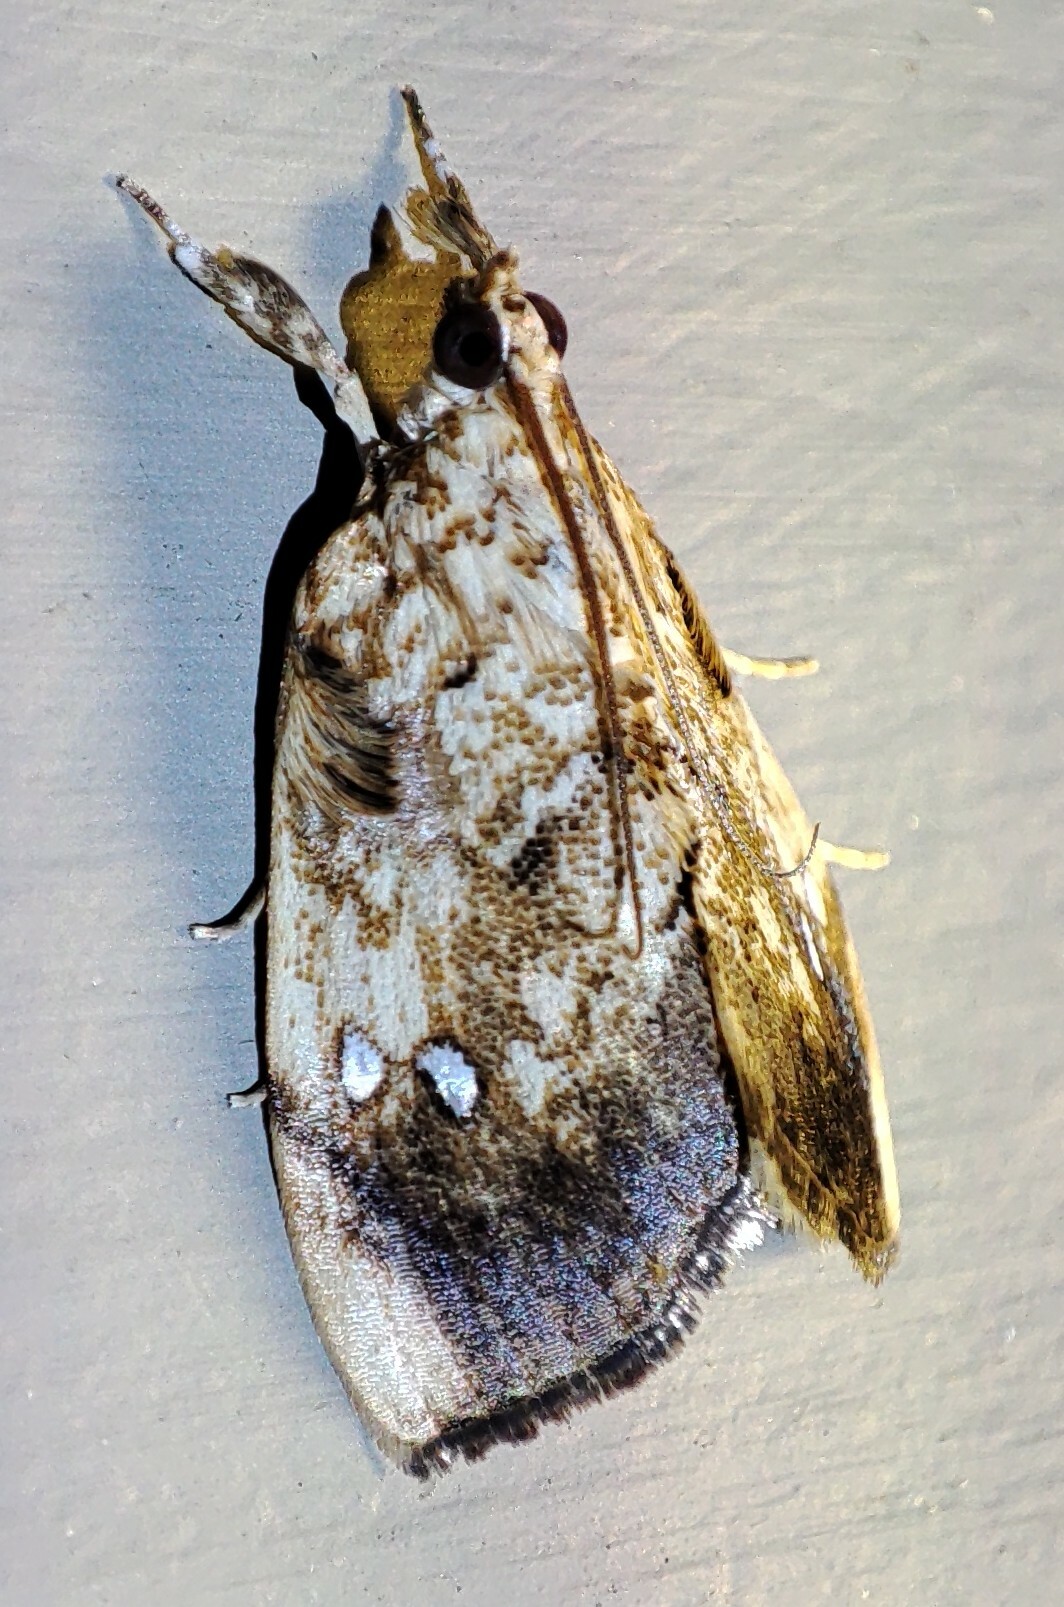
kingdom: Animalia
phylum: Arthropoda
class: Insecta
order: Lepidoptera
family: Crambidae
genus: Crocidolomia
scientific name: Crocidolomia pavonana
